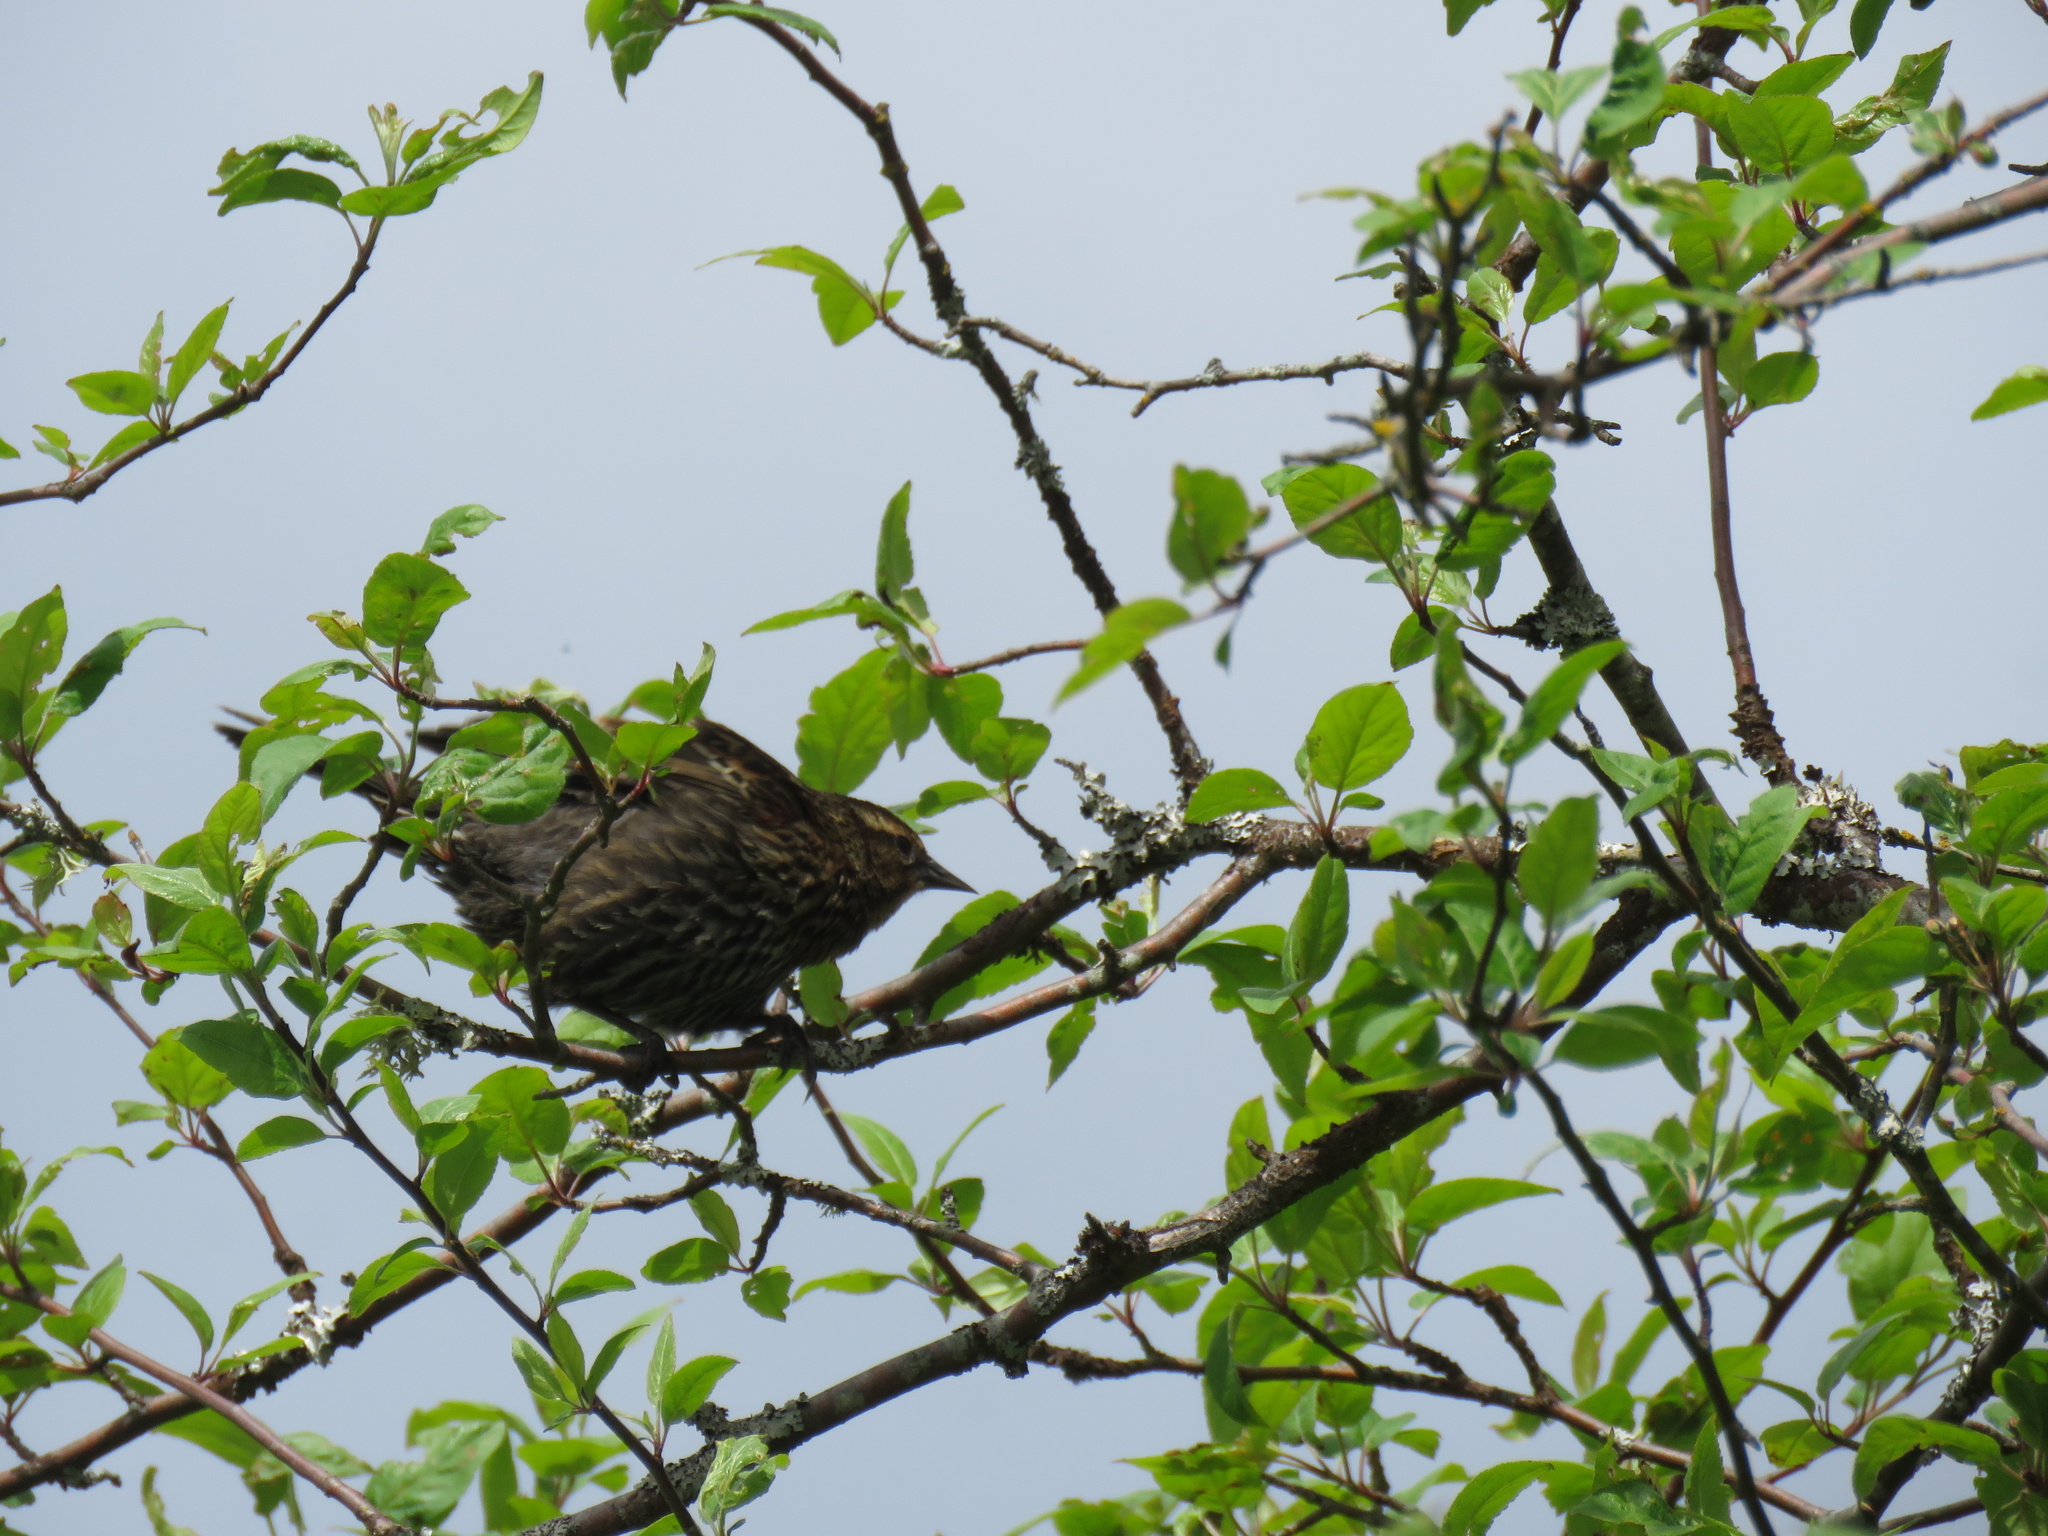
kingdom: Animalia
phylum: Chordata
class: Aves
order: Passeriformes
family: Icteridae
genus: Agelaius
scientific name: Agelaius phoeniceus
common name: Red-winged blackbird
